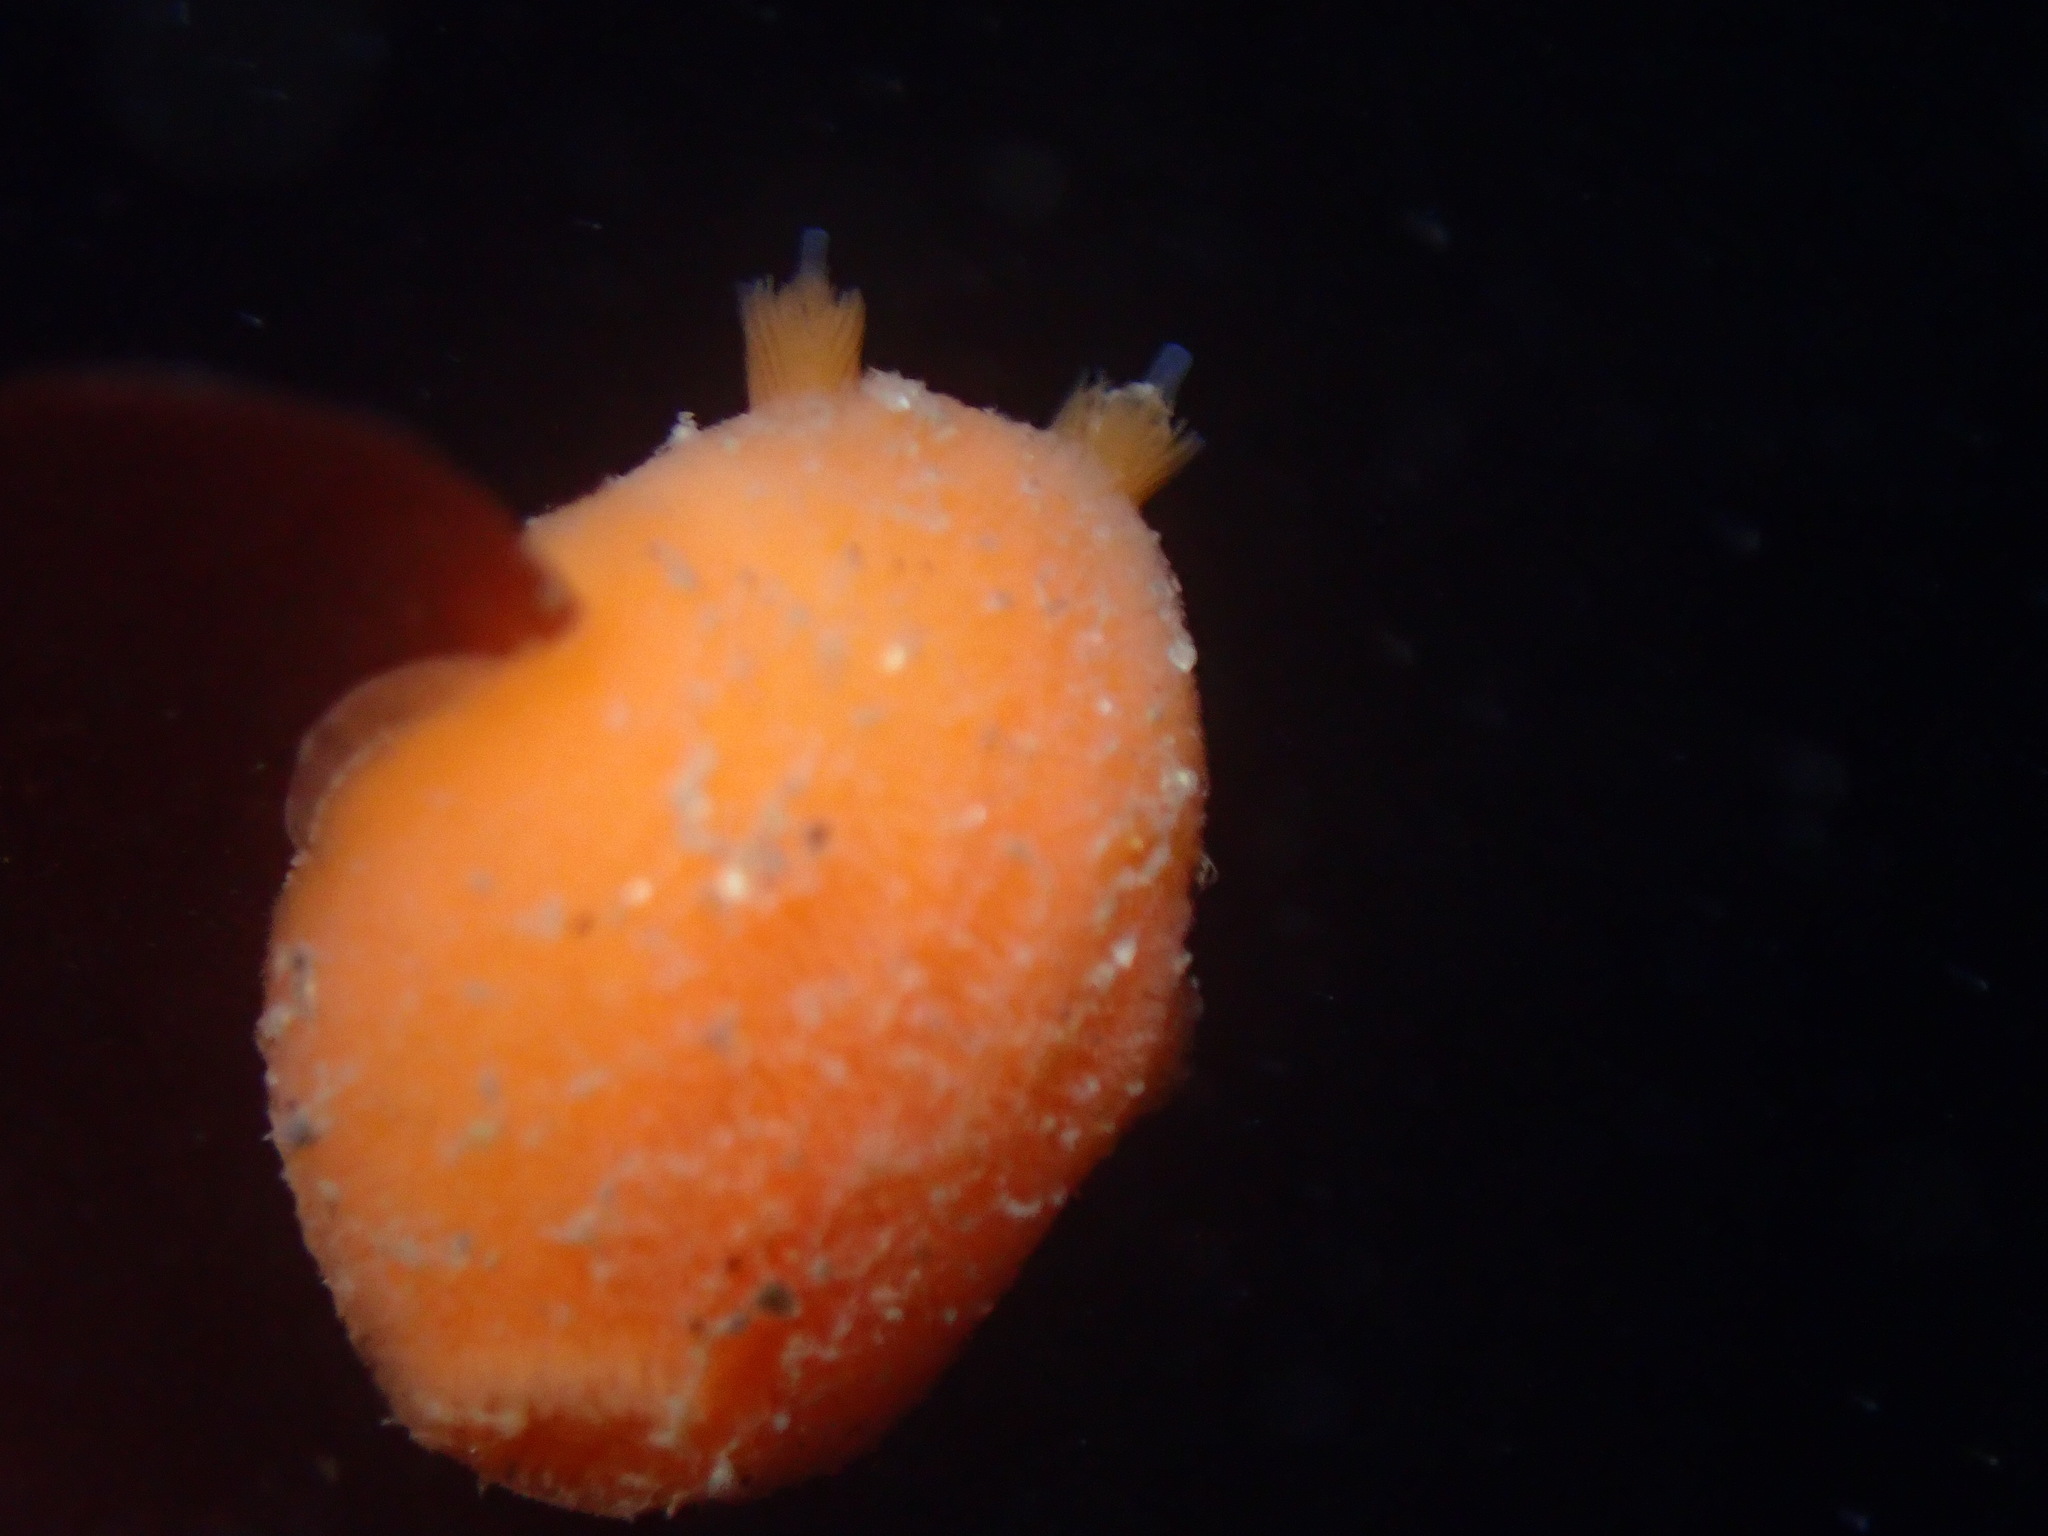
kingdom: Animalia
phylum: Mollusca
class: Gastropoda
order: Nudibranchia
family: Discodorididae
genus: Rostanga
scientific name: Rostanga pulchra
